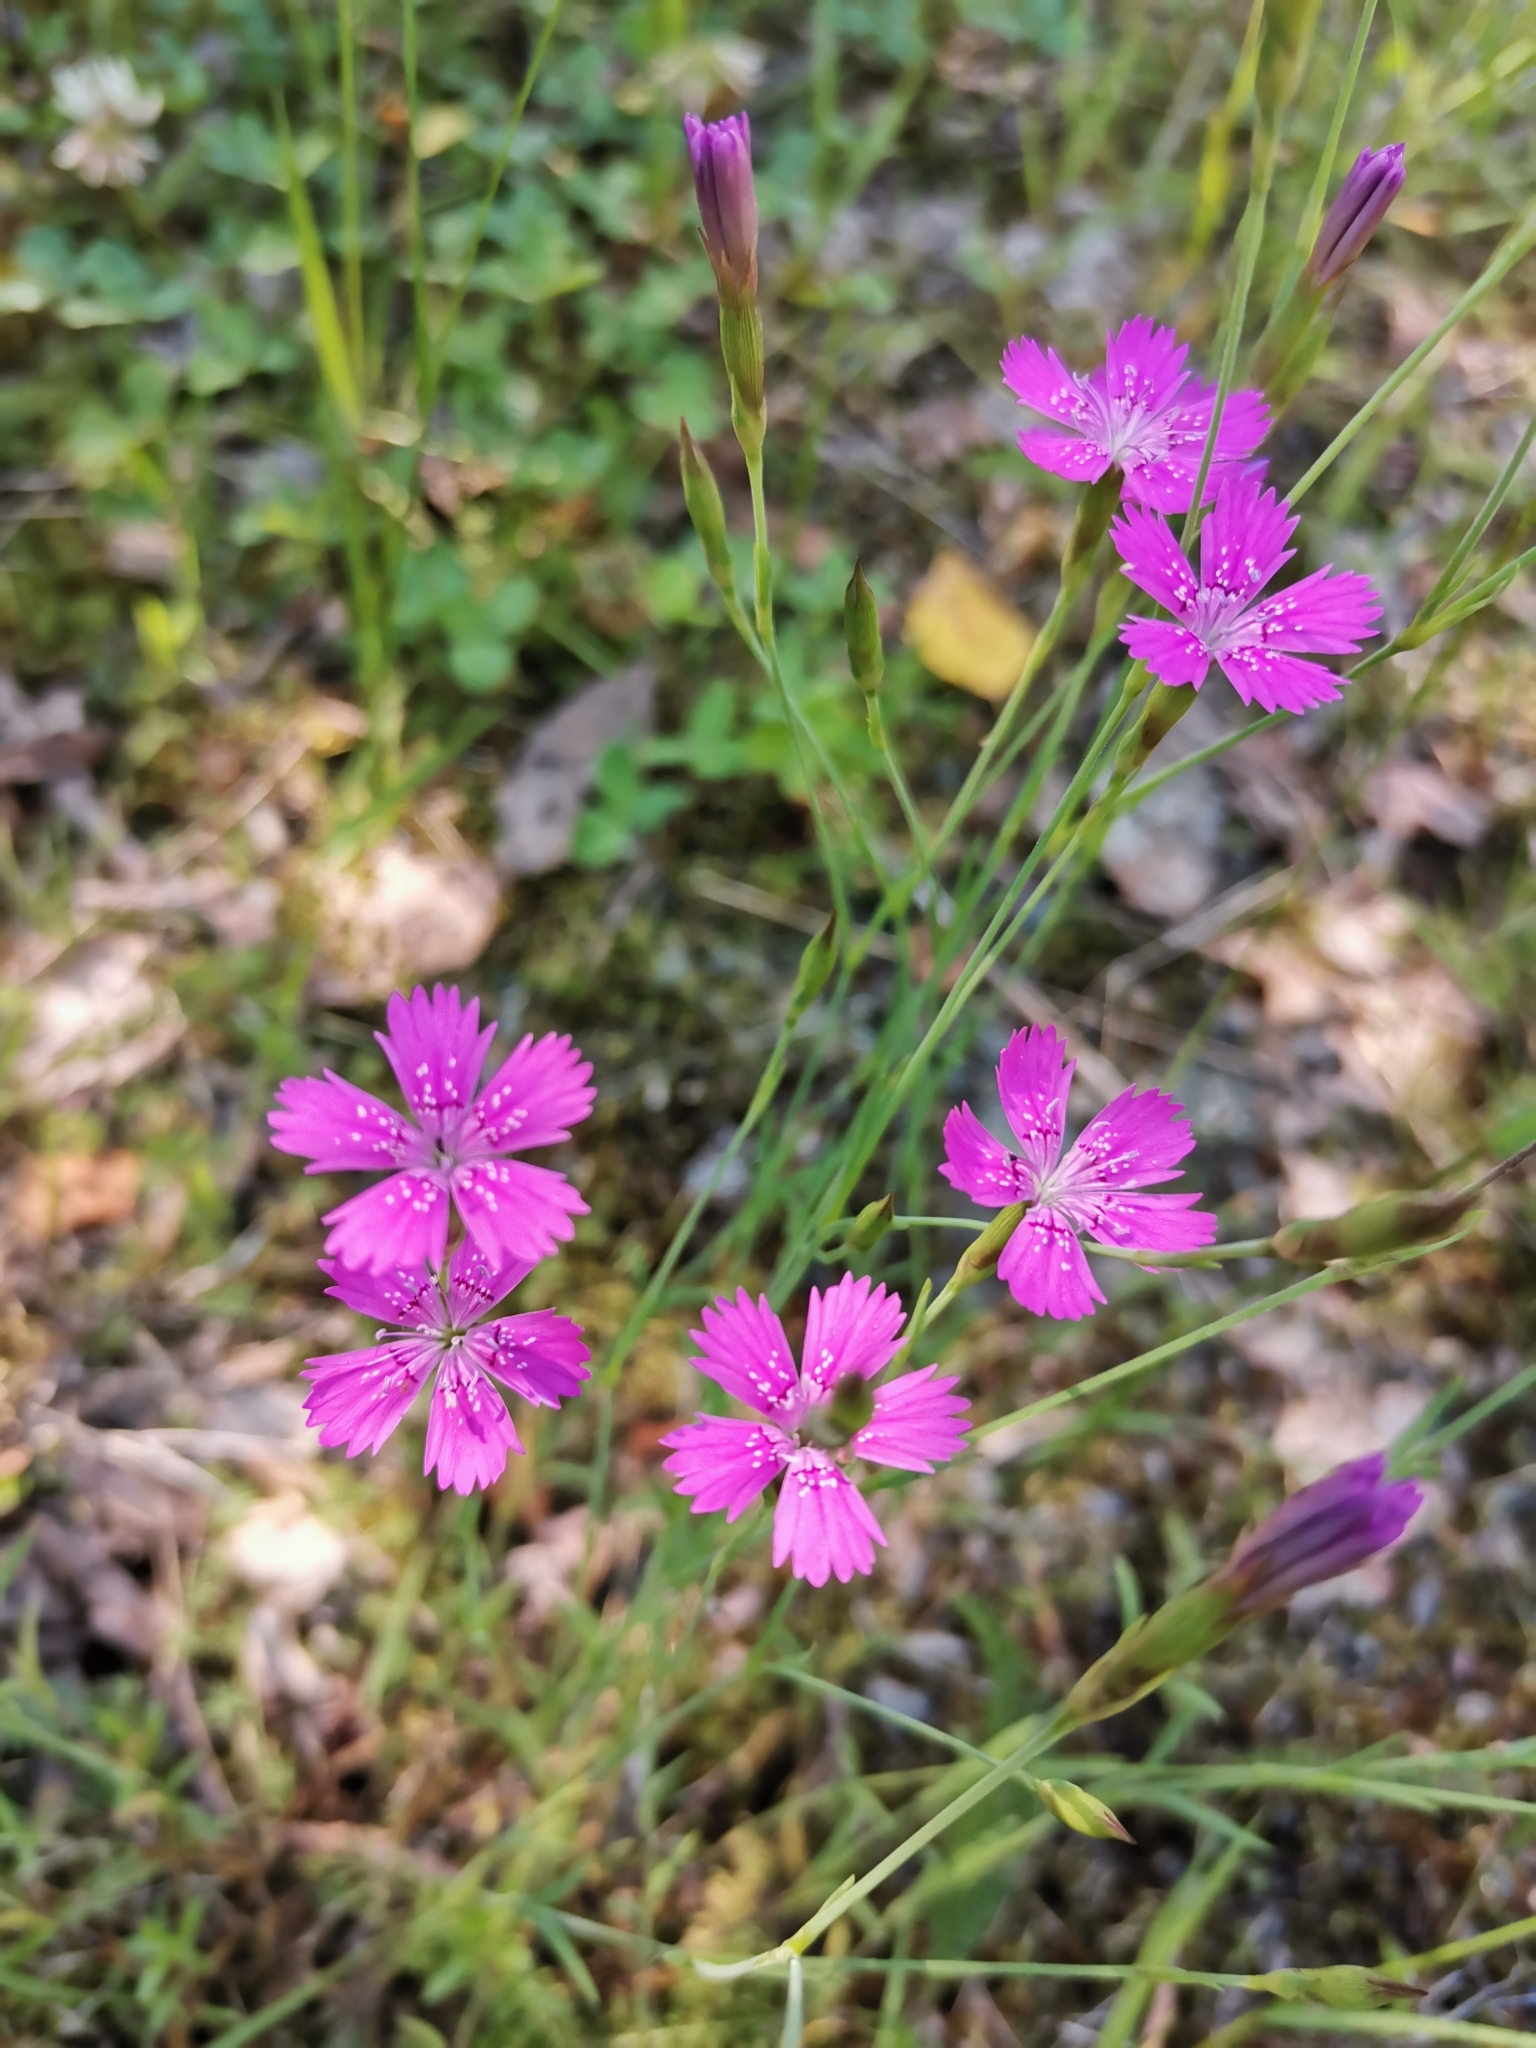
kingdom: Plantae
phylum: Tracheophyta
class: Magnoliopsida
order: Caryophyllales
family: Caryophyllaceae
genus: Dianthus
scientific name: Dianthus deltoides
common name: Maiden pink
